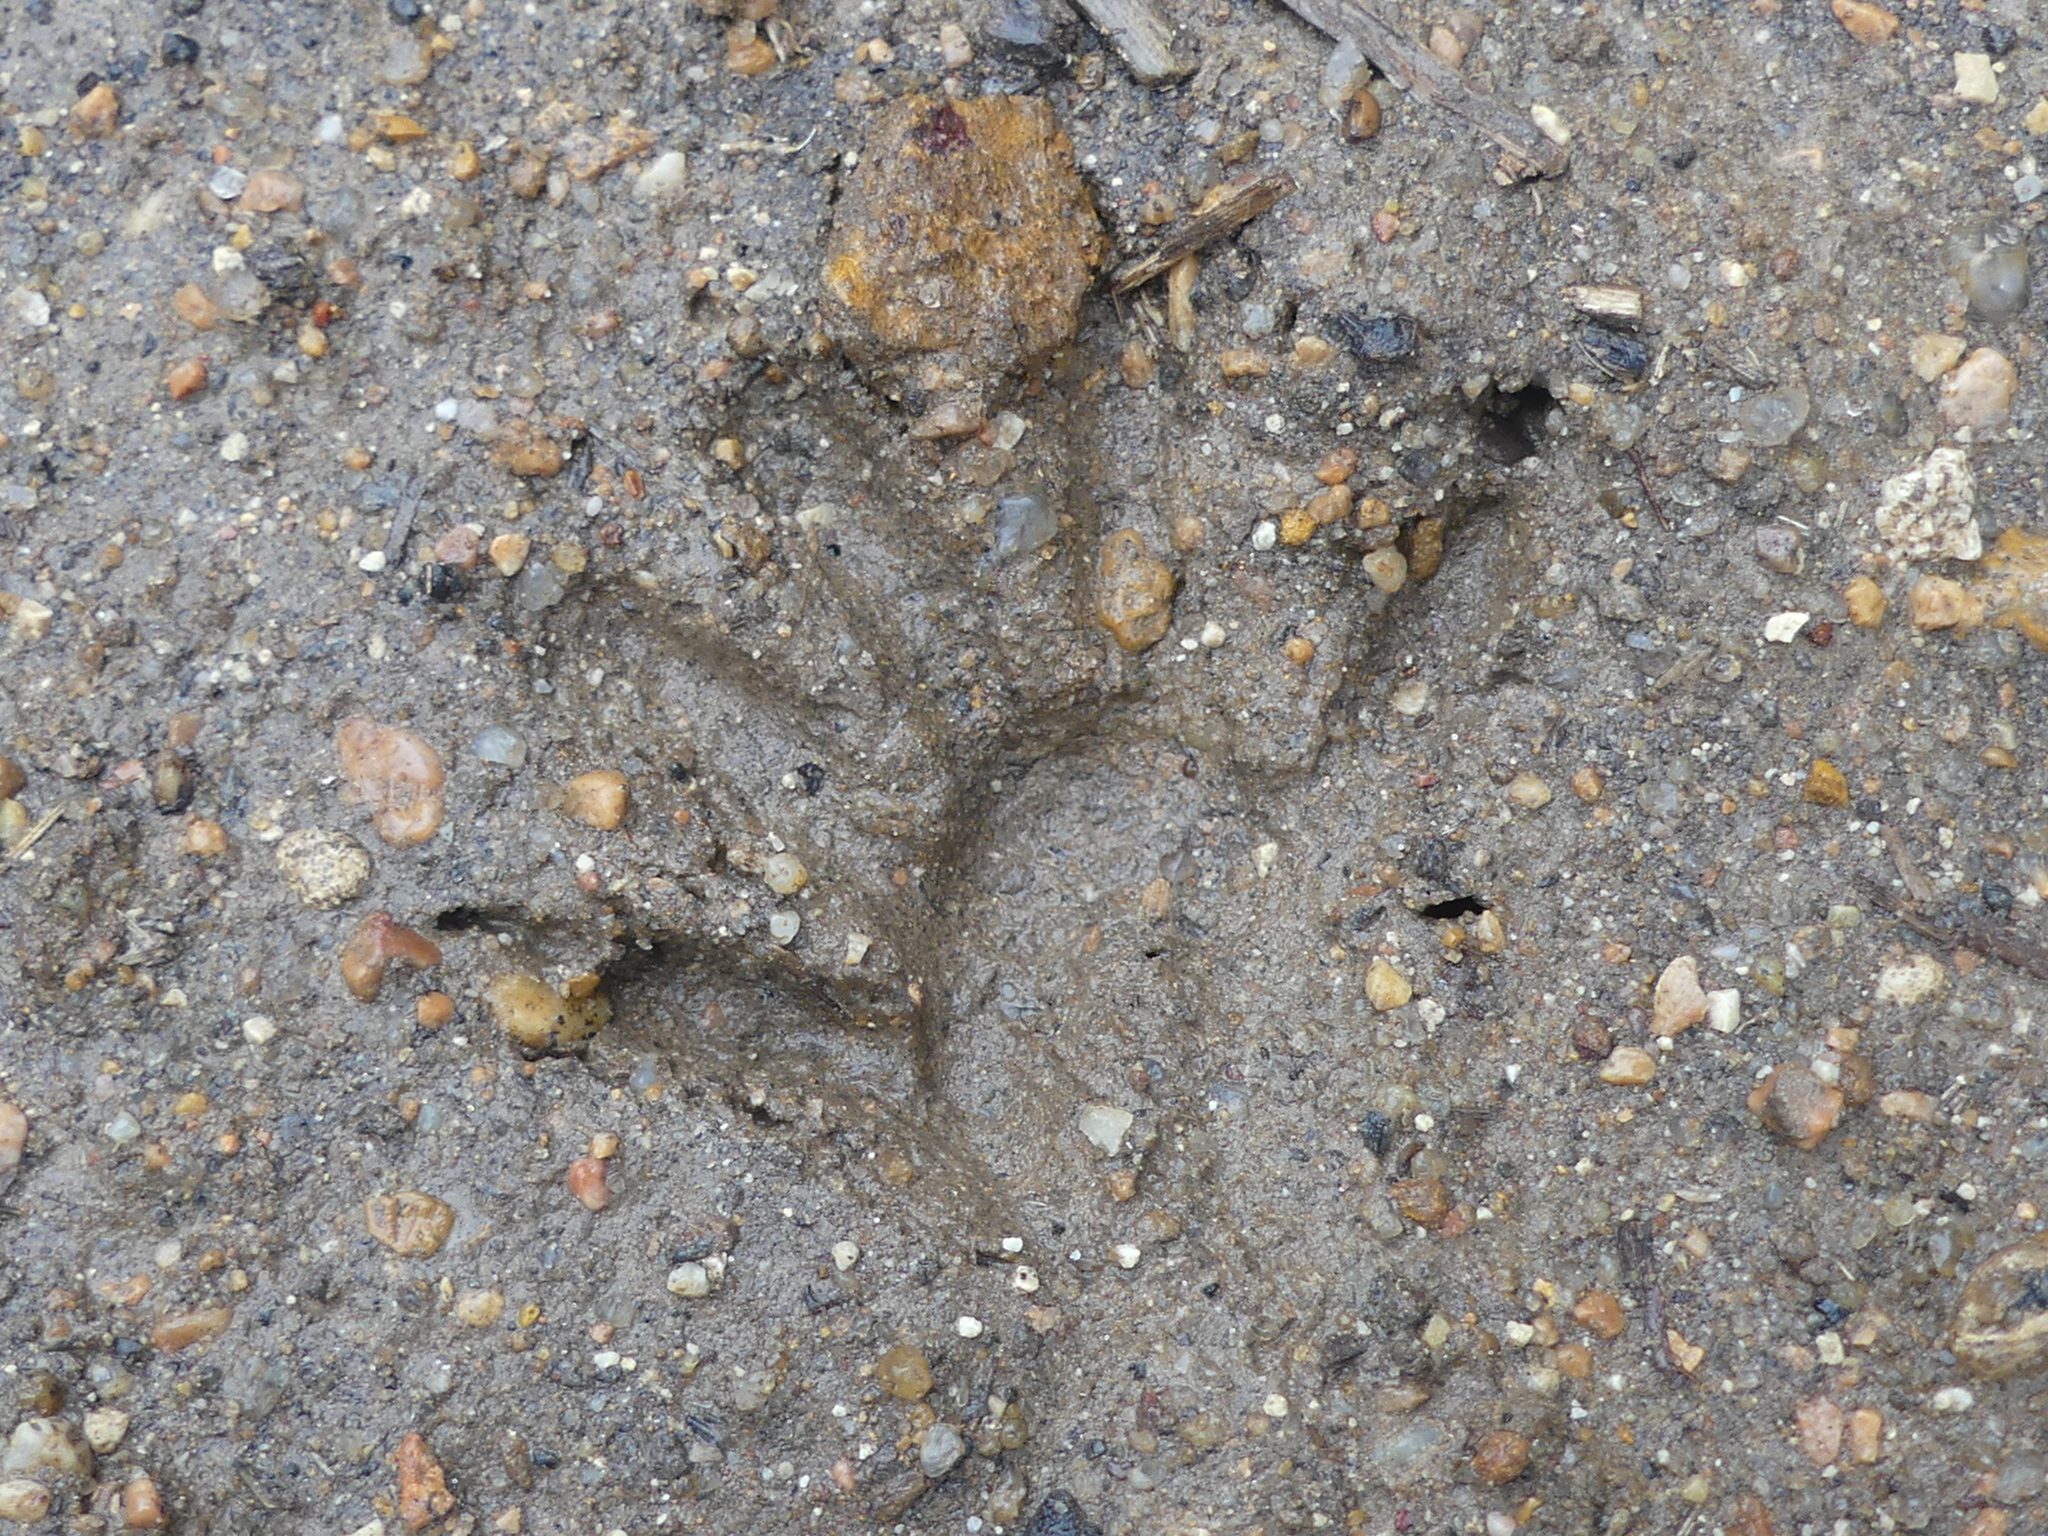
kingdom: Animalia
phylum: Chordata
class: Mammalia
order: Carnivora
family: Procyonidae
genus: Procyon
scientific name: Procyon lotor
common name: Raccoon
